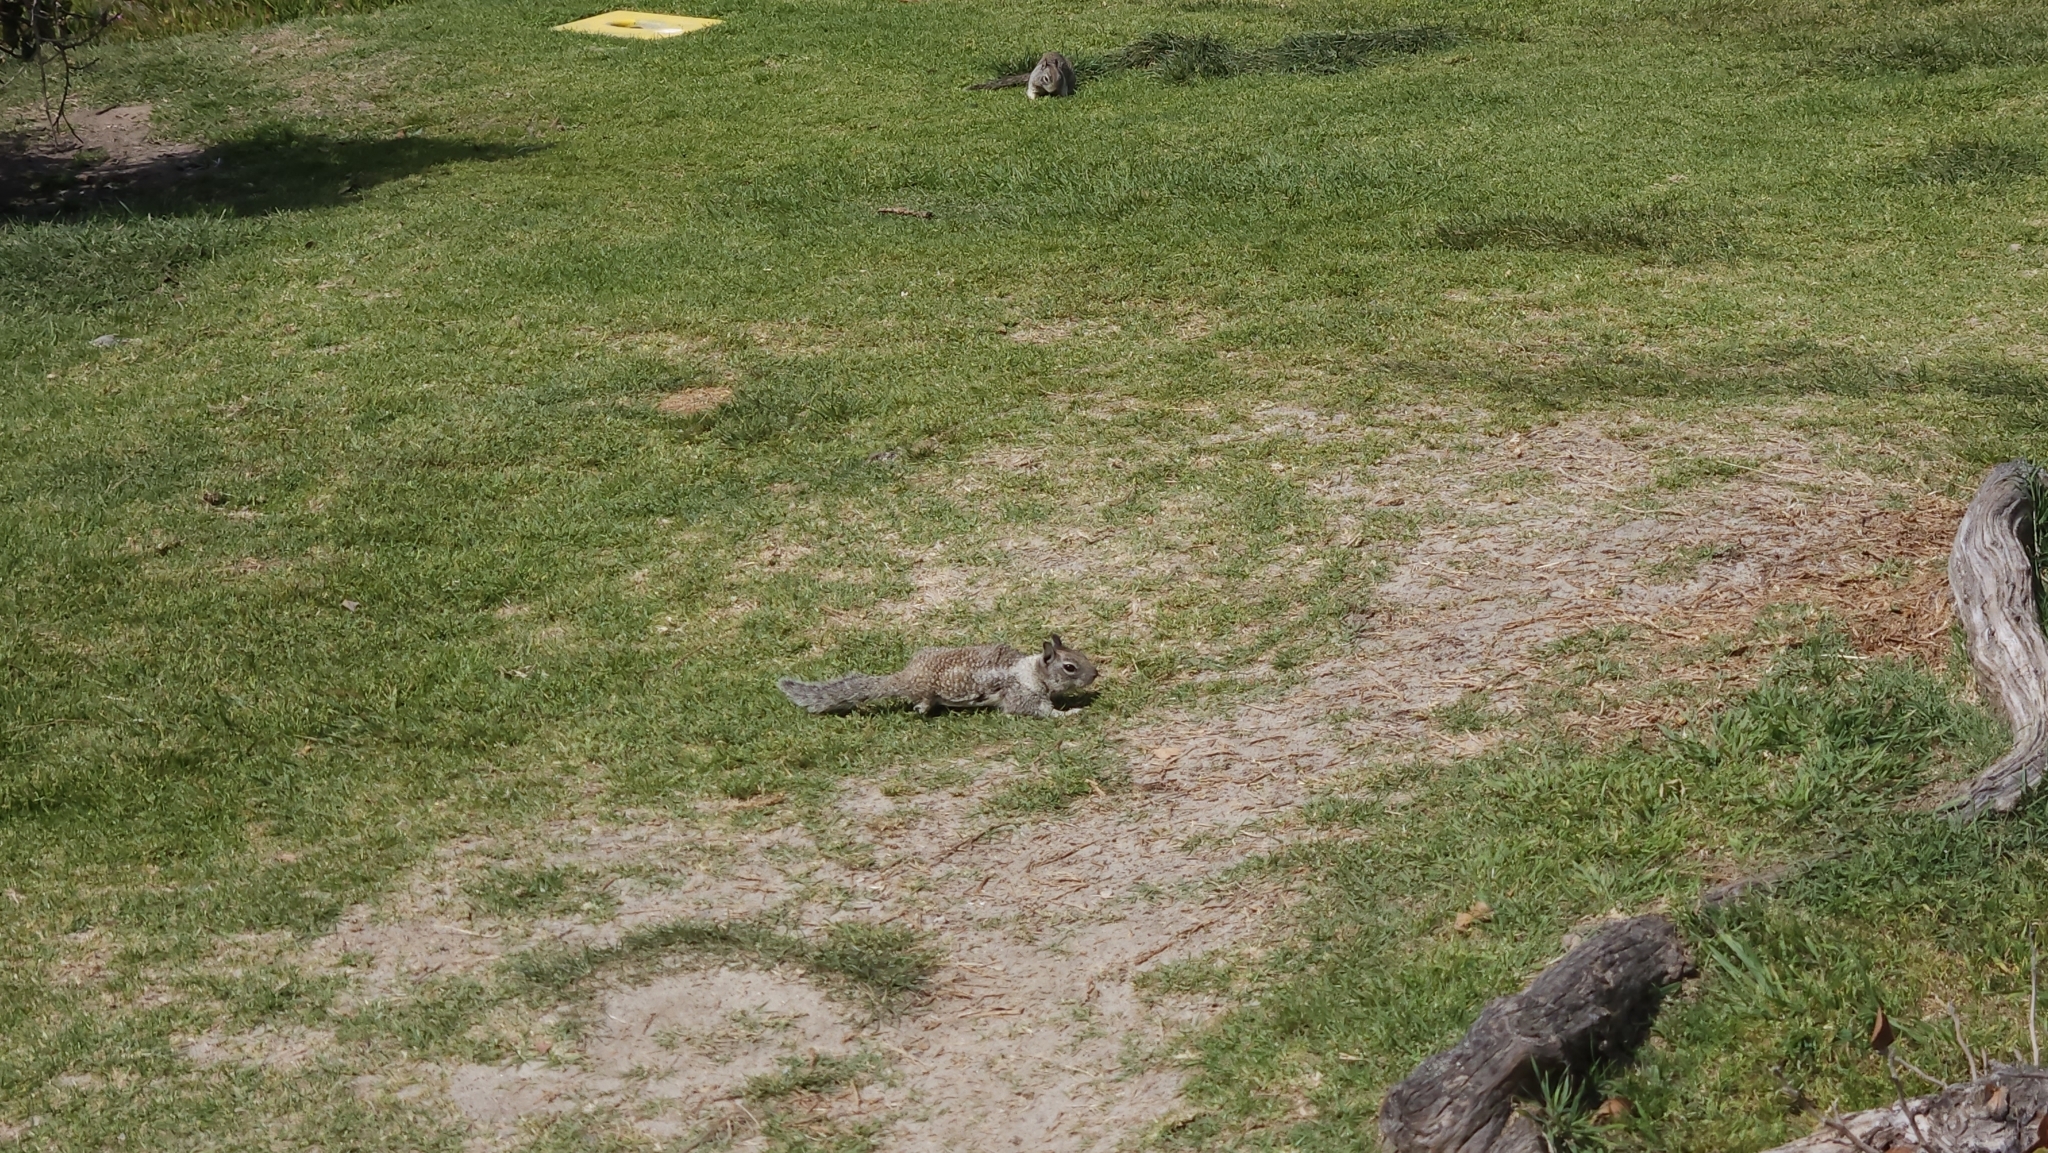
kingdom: Animalia
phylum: Chordata
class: Mammalia
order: Rodentia
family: Sciuridae
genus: Otospermophilus
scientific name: Otospermophilus beecheyi
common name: California ground squirrel
